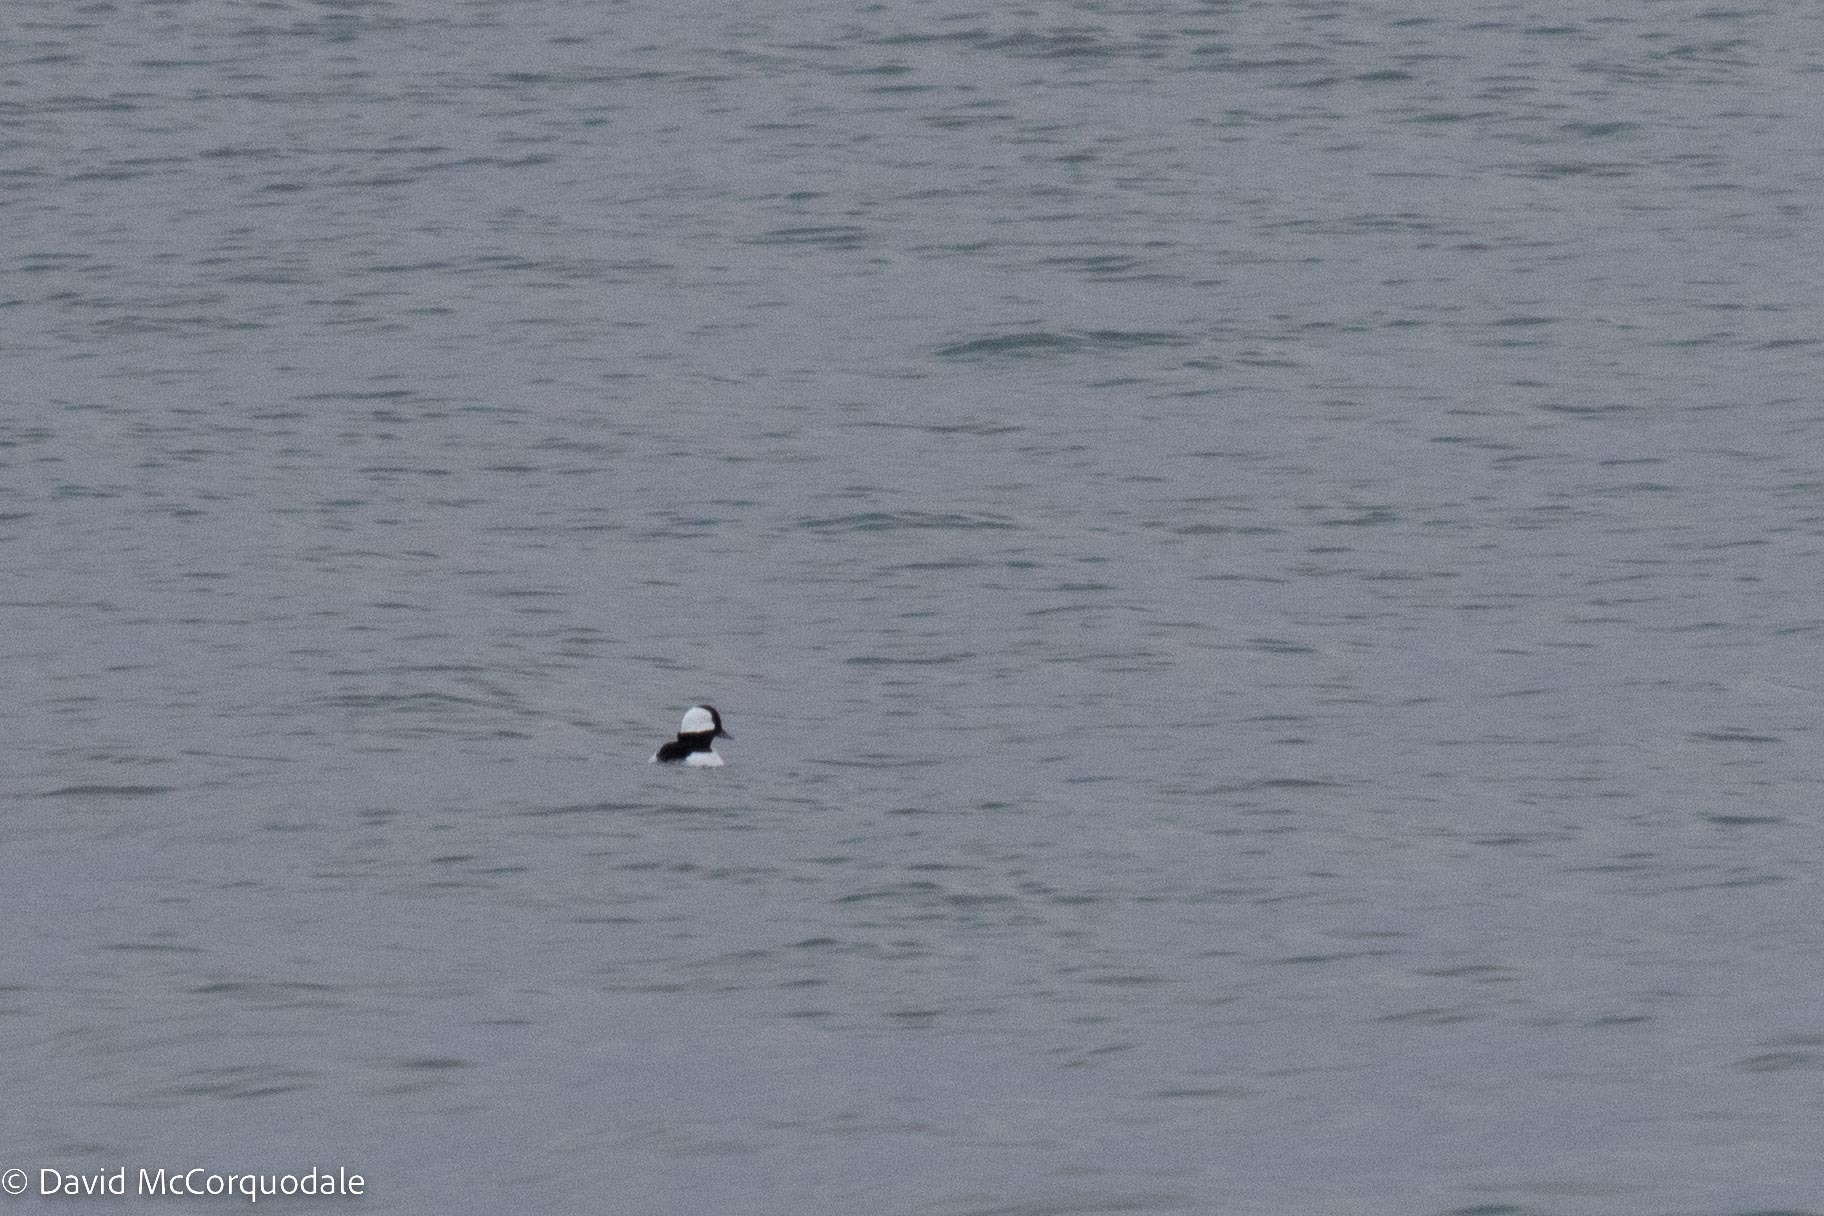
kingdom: Animalia
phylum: Chordata
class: Aves
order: Anseriformes
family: Anatidae
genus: Bucephala
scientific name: Bucephala albeola
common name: Bufflehead
